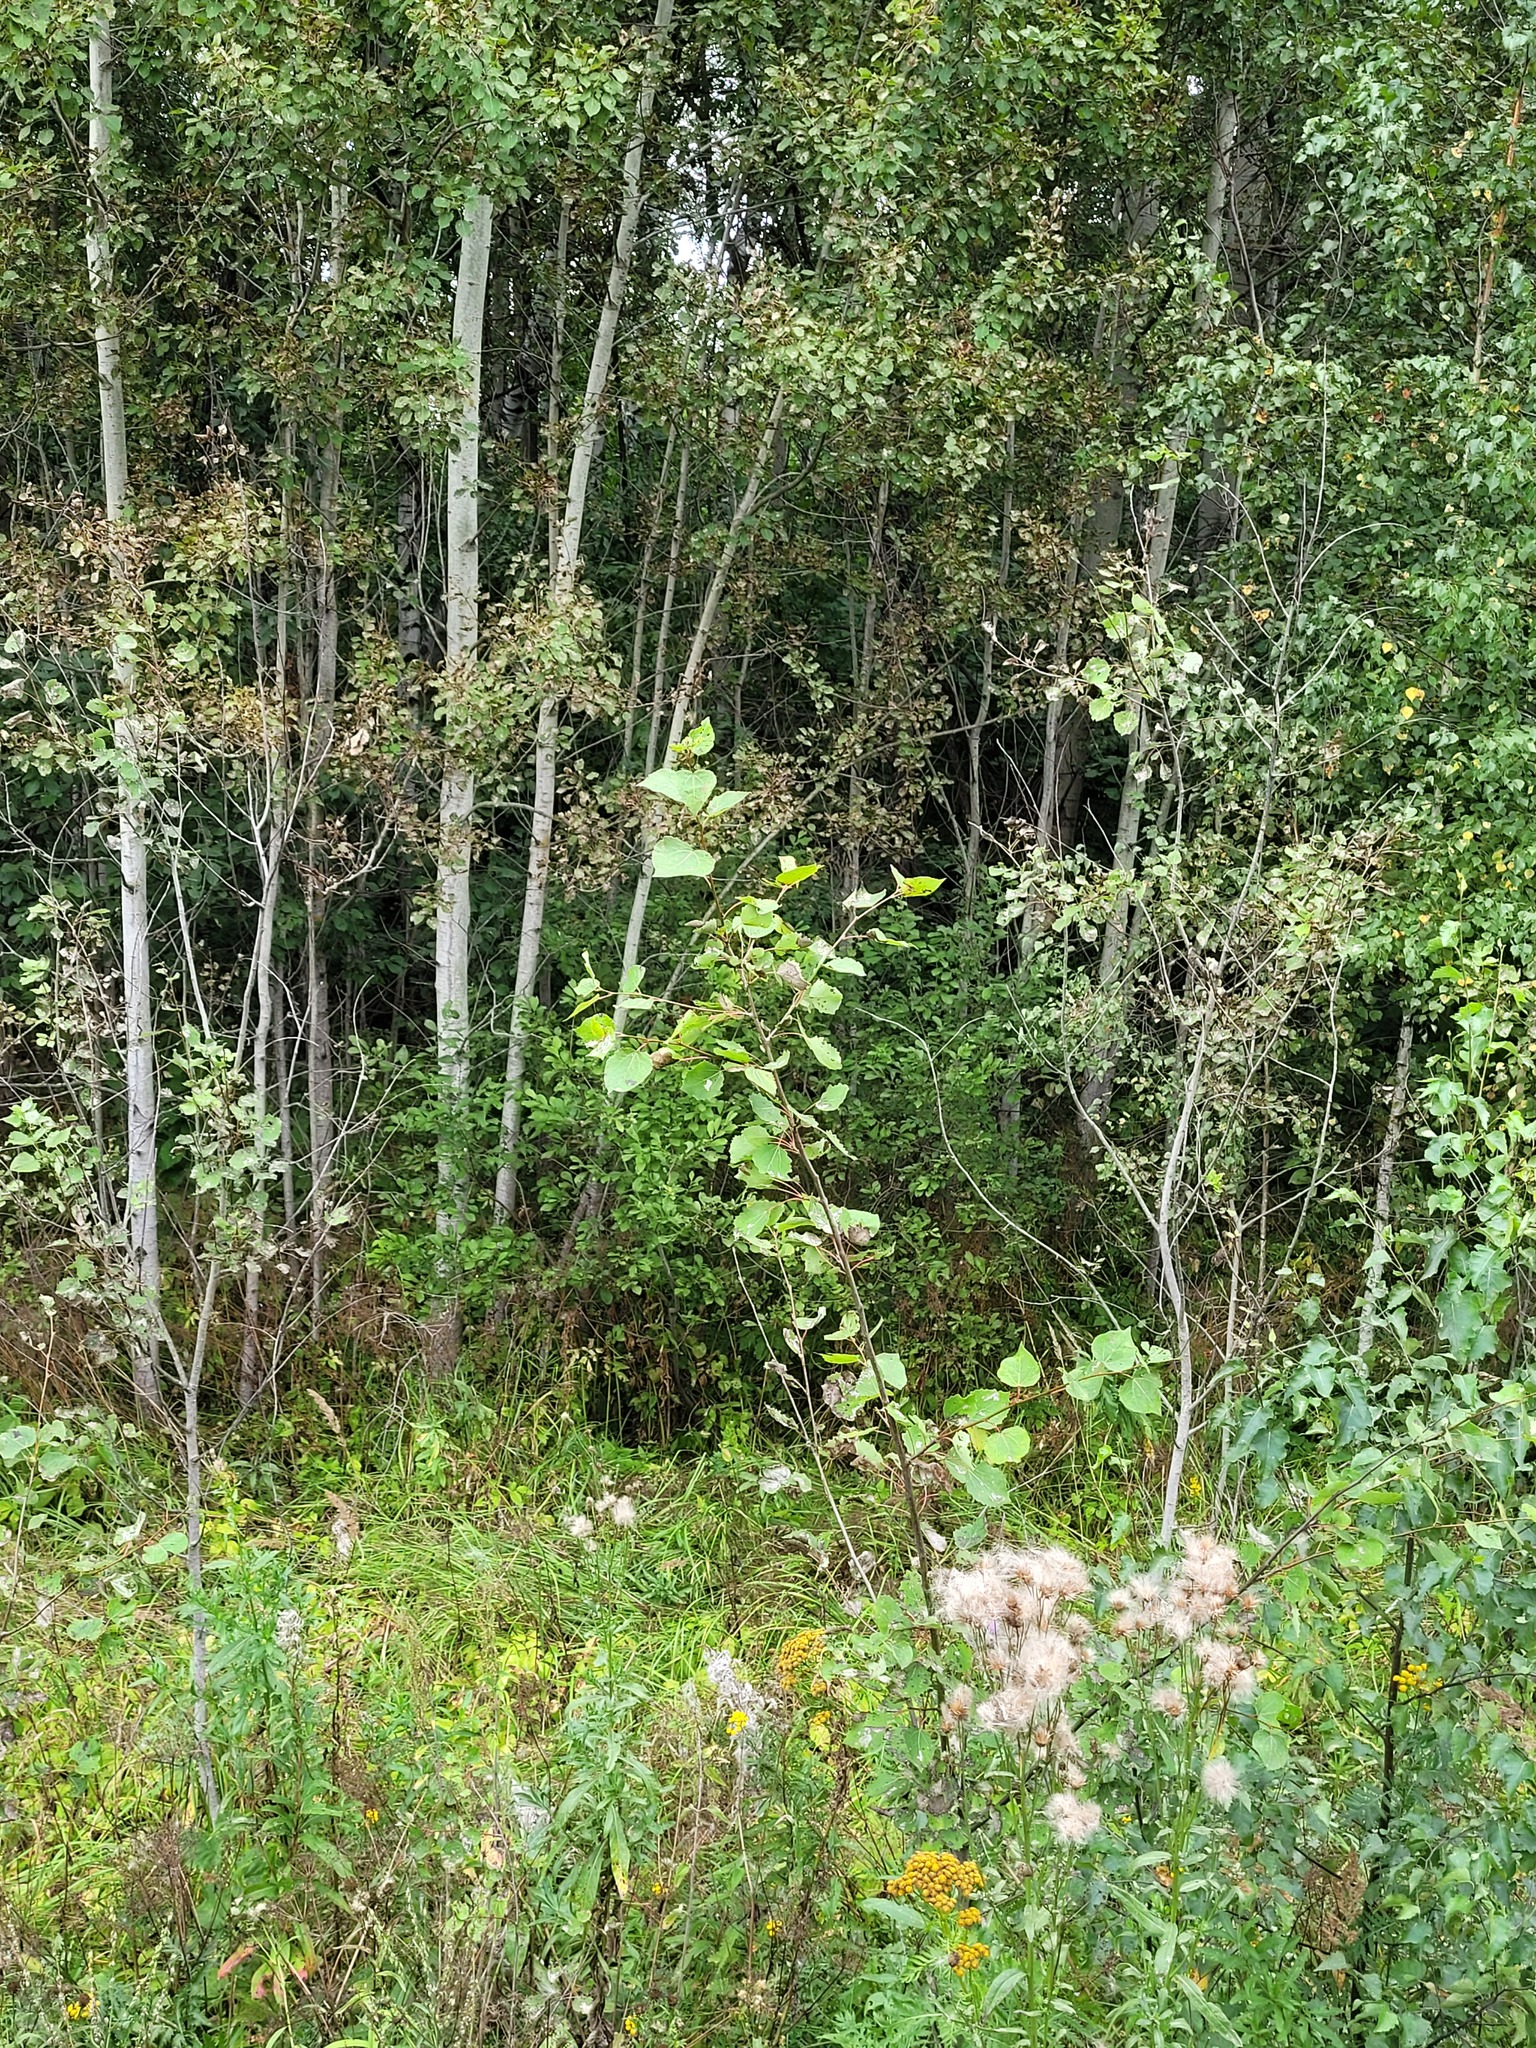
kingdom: Plantae
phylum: Tracheophyta
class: Magnoliopsida
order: Malpighiales
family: Salicaceae
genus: Populus
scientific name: Populus tremula
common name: European aspen
